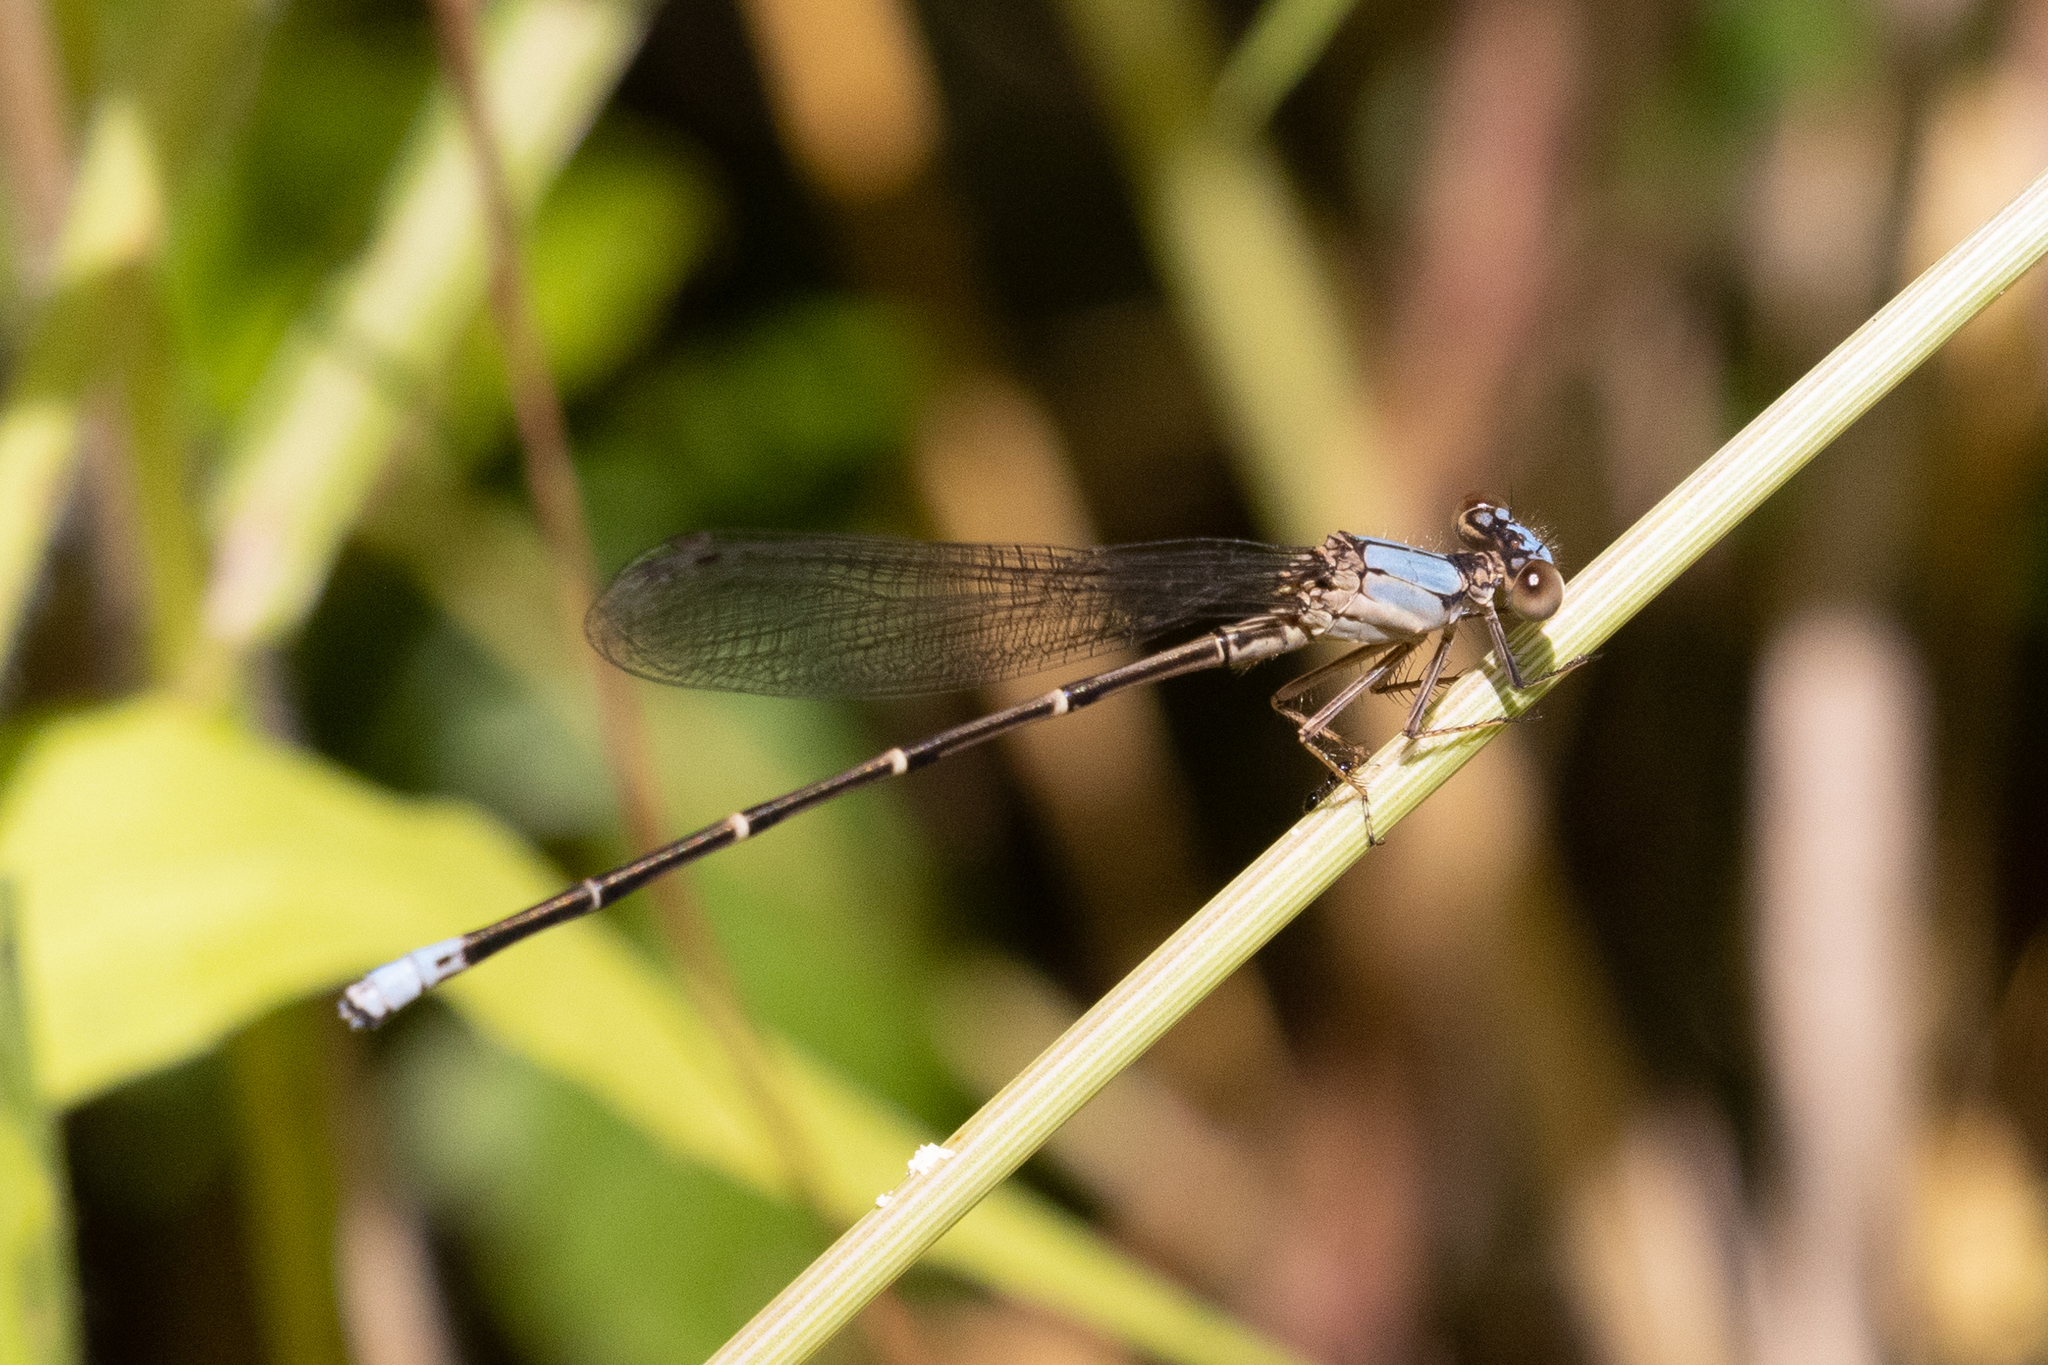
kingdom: Animalia
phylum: Arthropoda
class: Insecta
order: Odonata
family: Coenagrionidae
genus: Argia
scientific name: Argia apicalis
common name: Blue-fronted dancer
